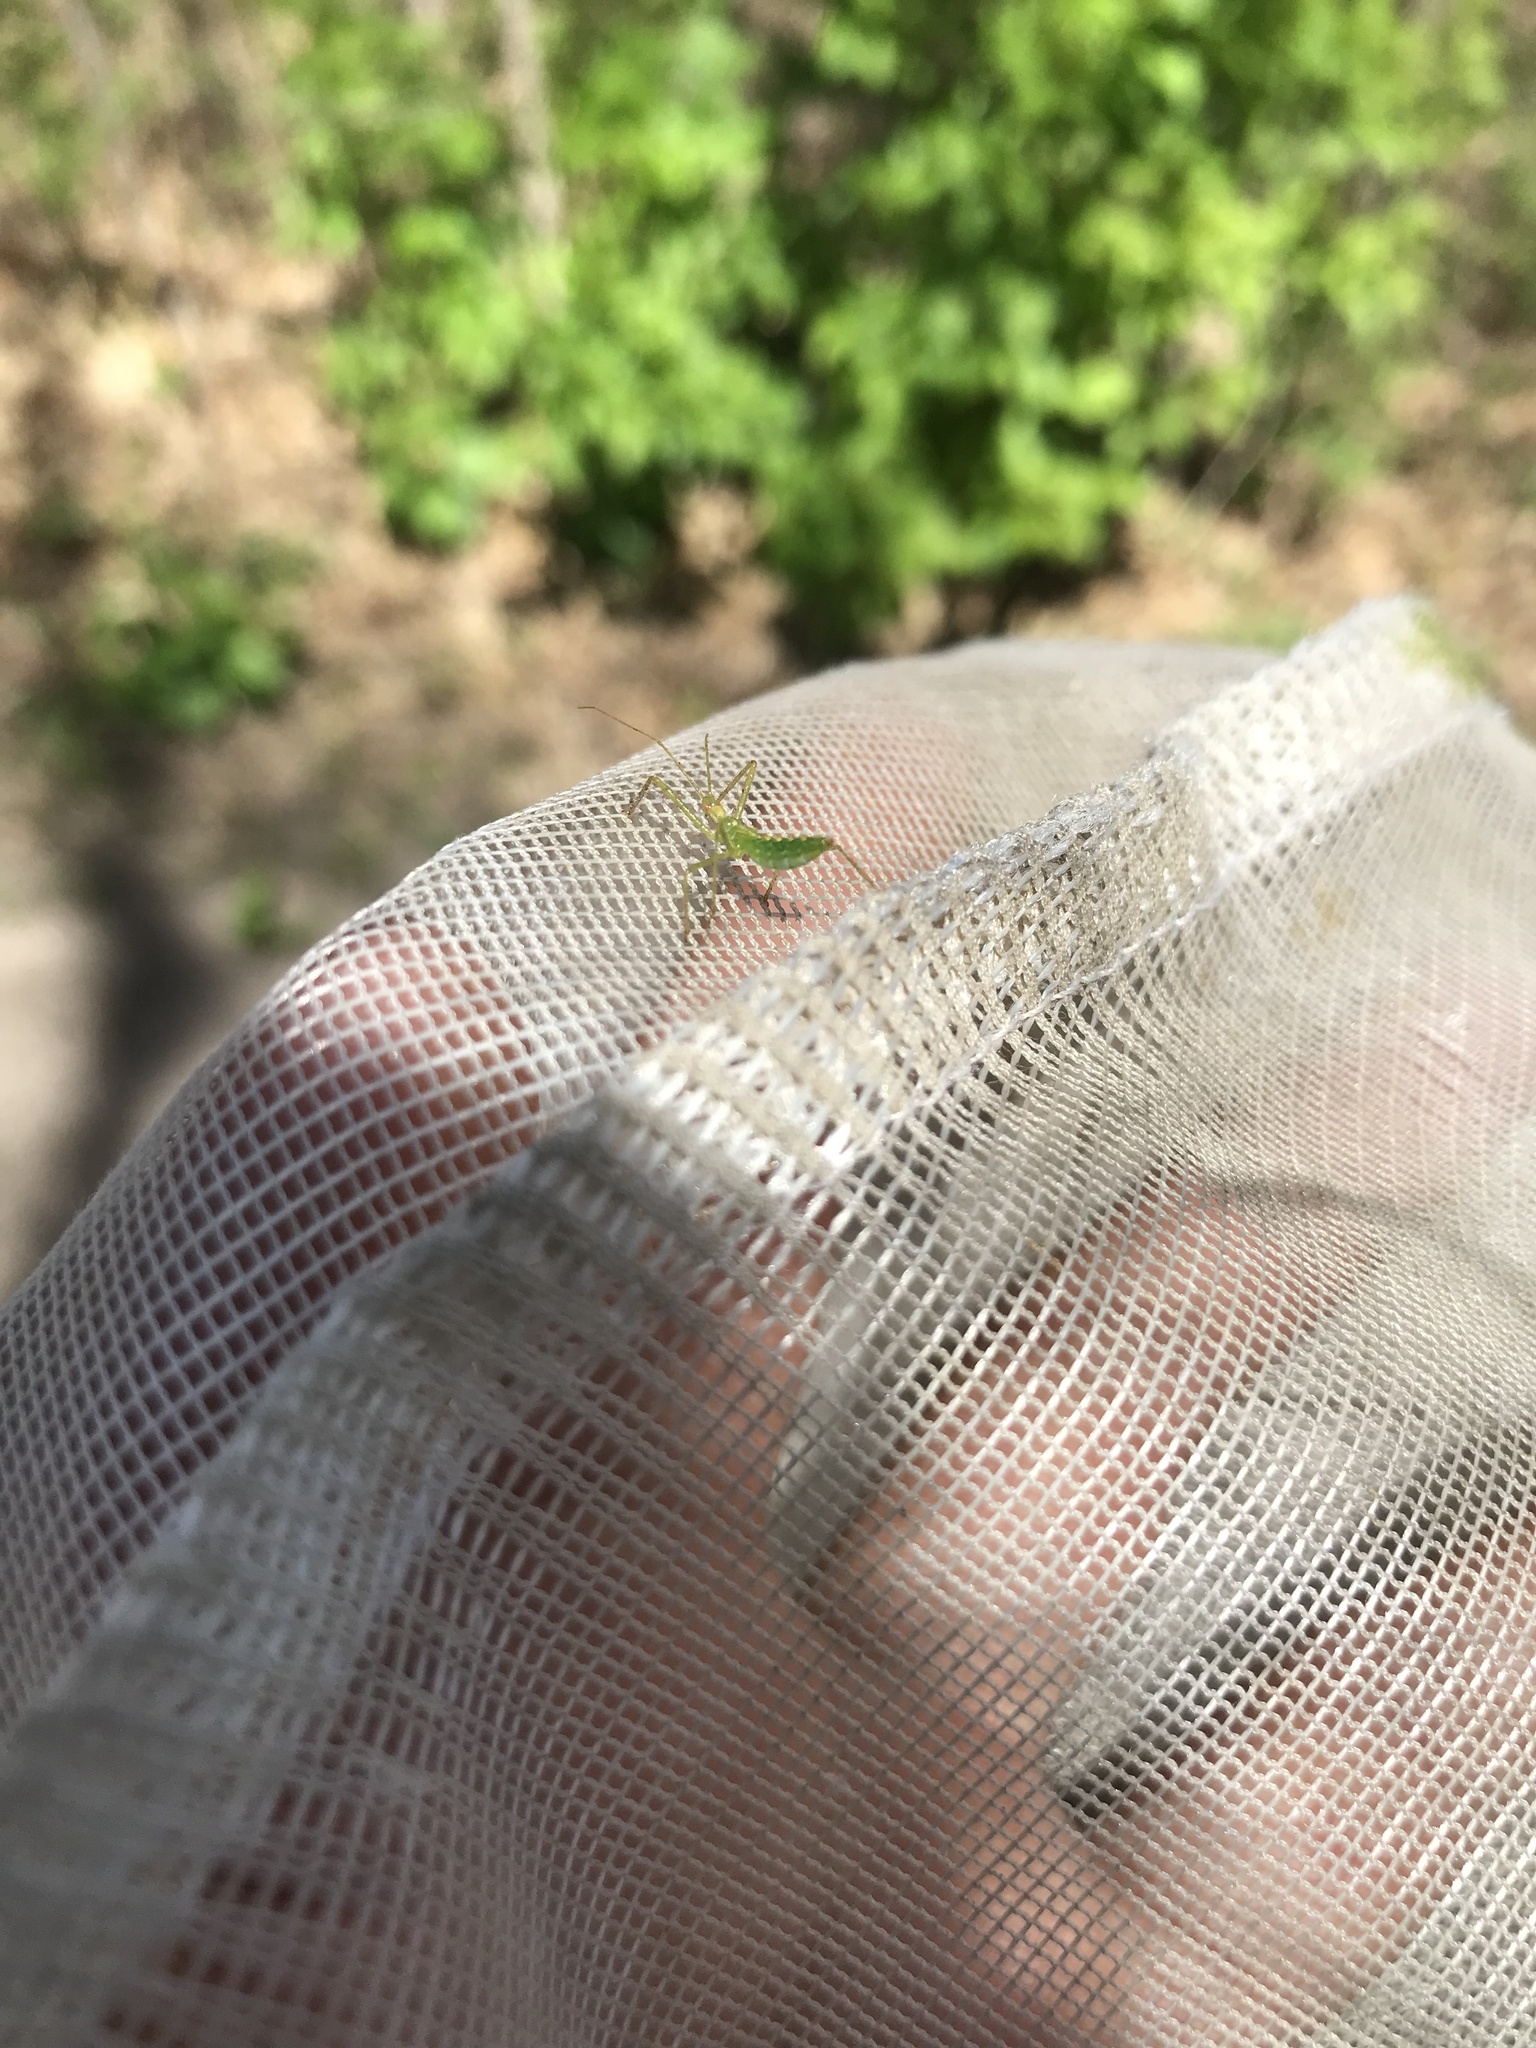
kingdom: Animalia
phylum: Arthropoda
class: Insecta
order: Hemiptera
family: Reduviidae
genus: Zelus
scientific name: Zelus luridus
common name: Pale green assassin bug
